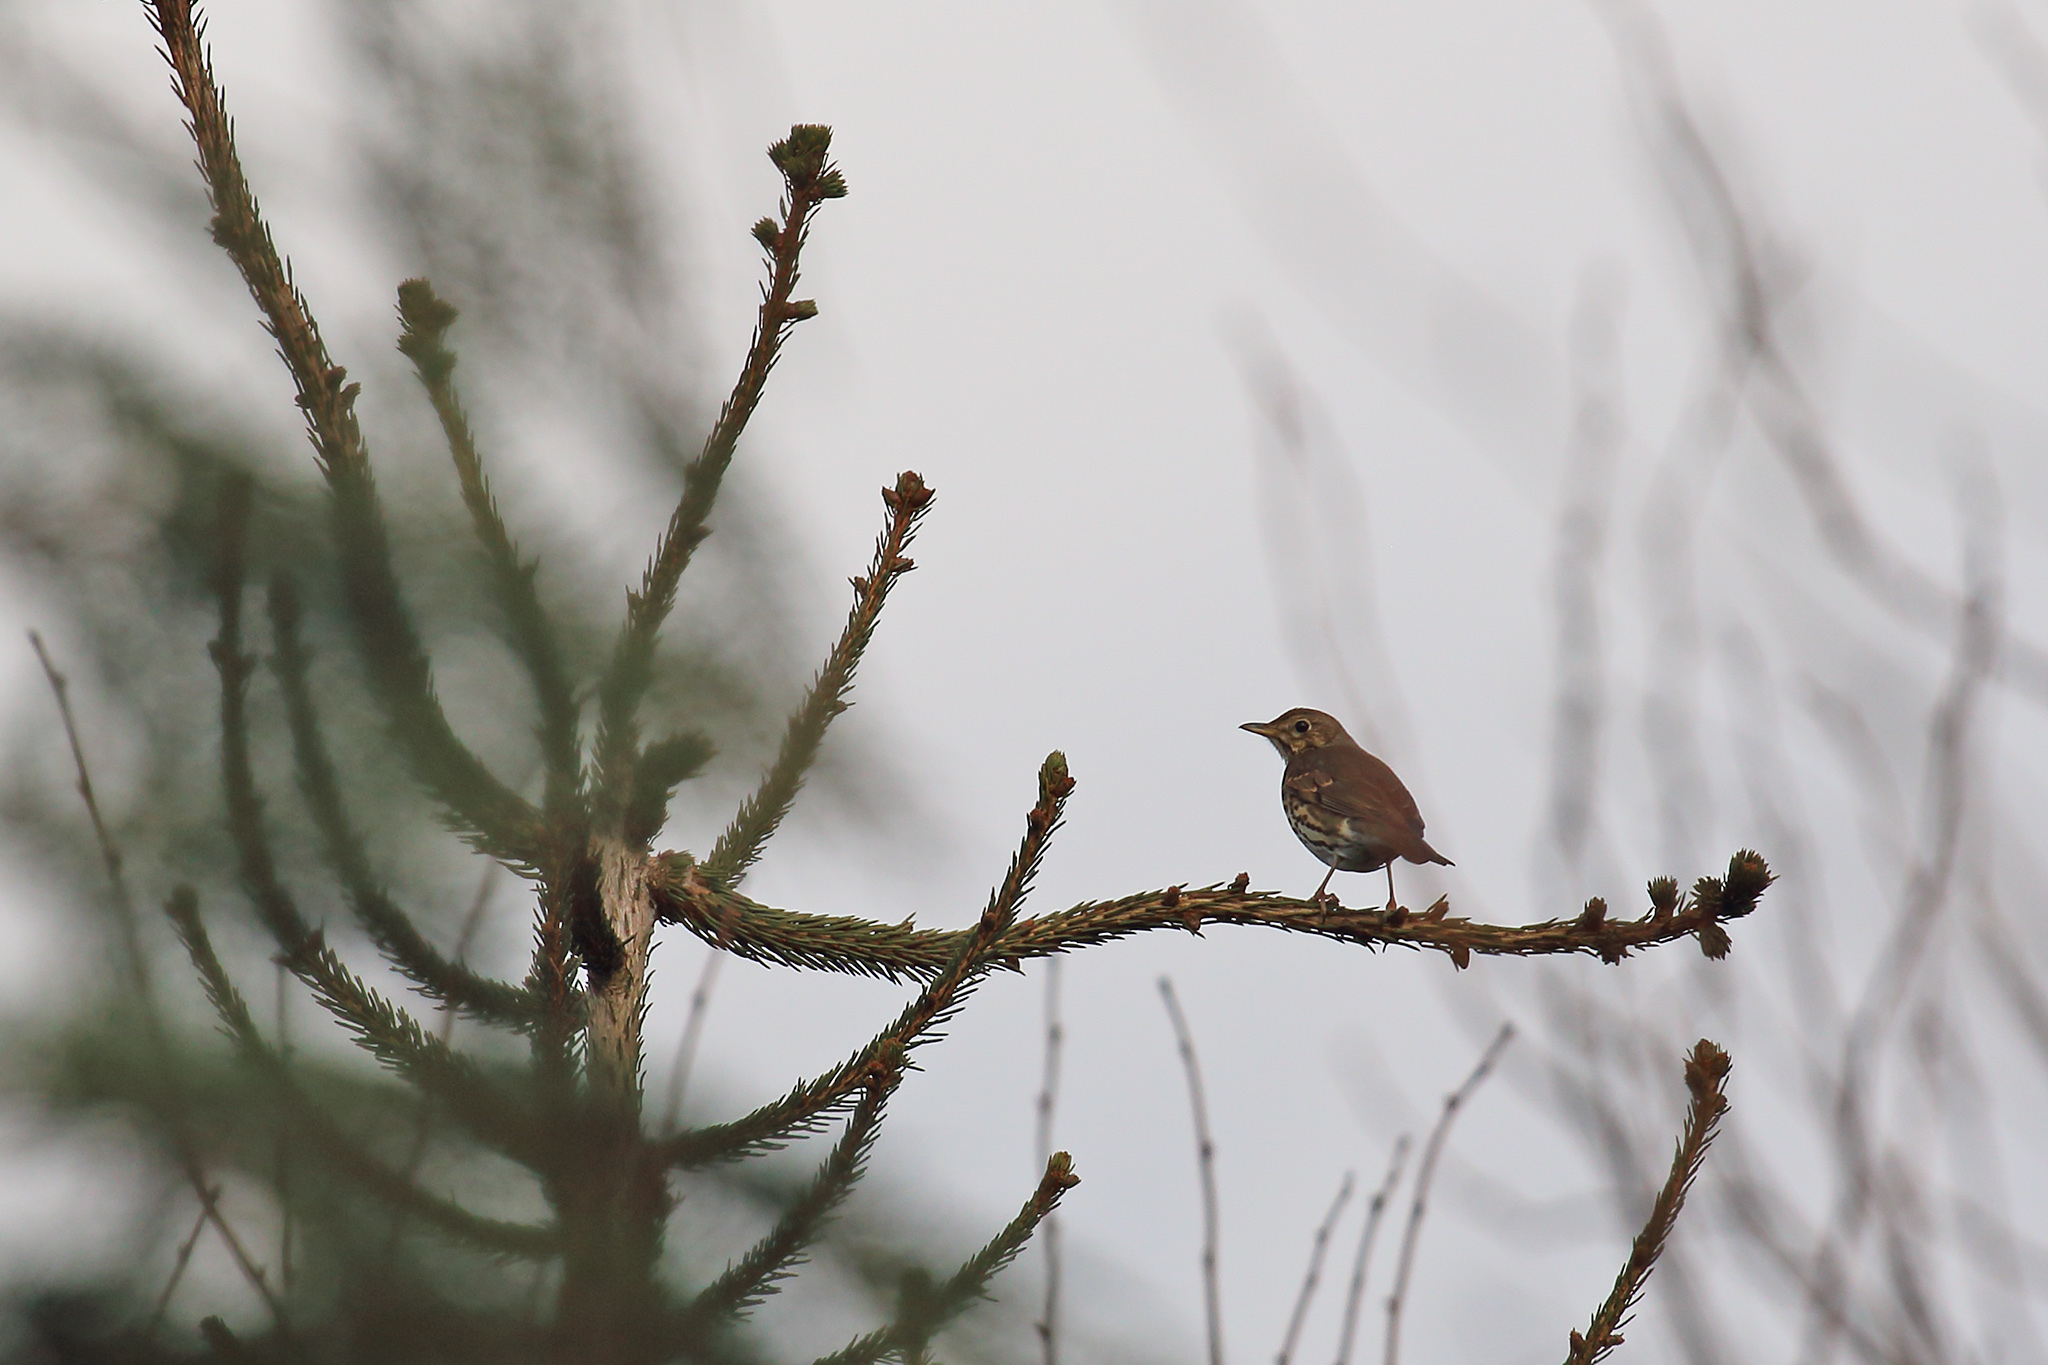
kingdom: Animalia
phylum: Chordata
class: Aves
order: Passeriformes
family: Turdidae
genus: Turdus
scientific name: Turdus philomelos
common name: Song thrush
